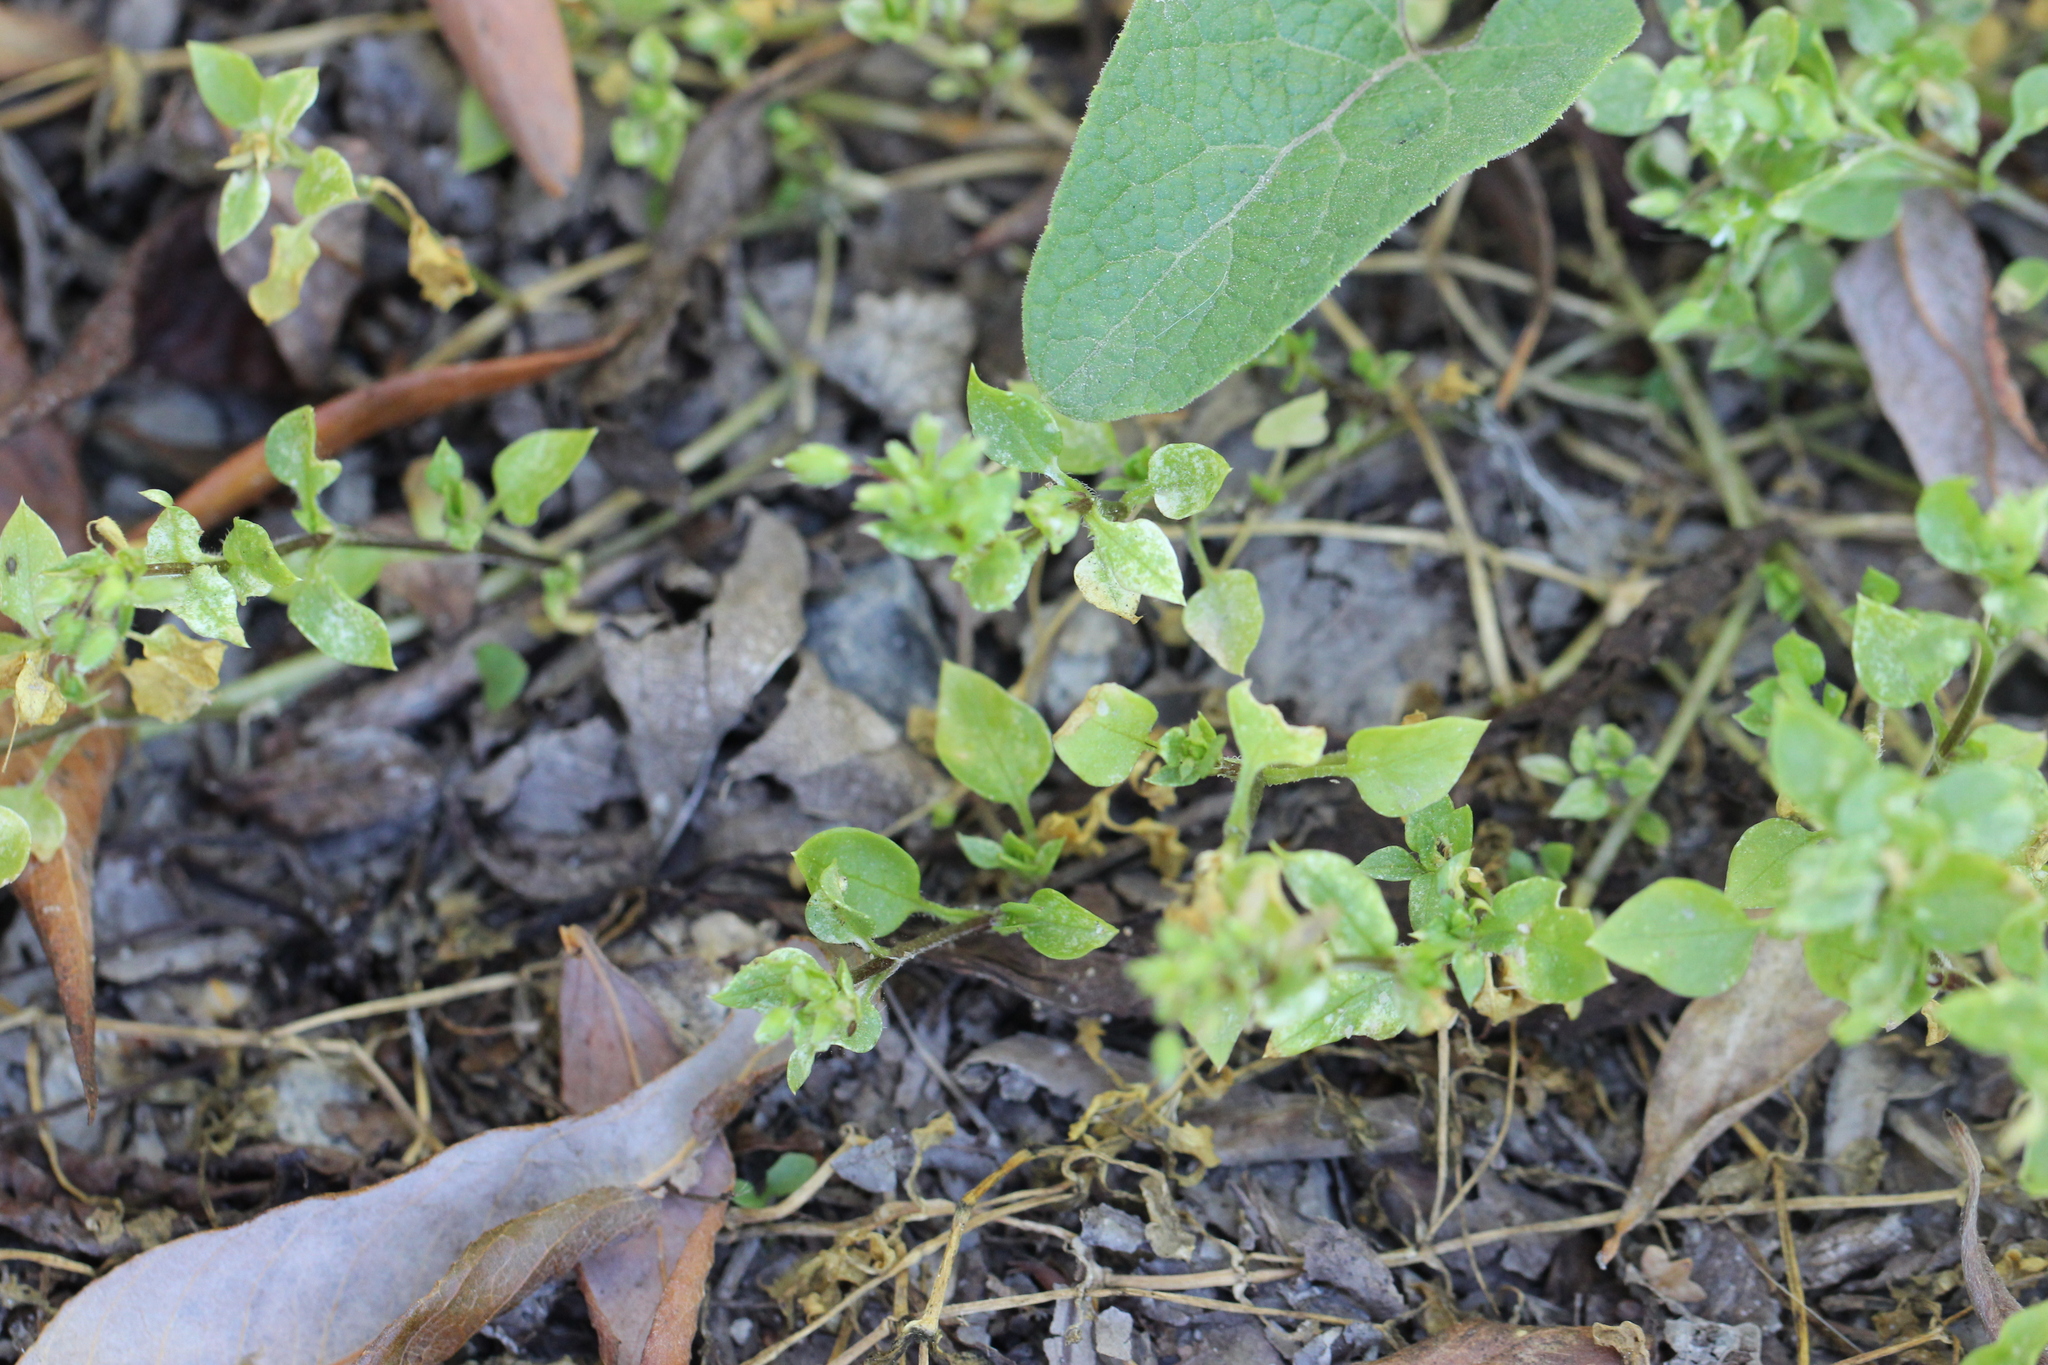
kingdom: Plantae
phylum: Tracheophyta
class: Magnoliopsida
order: Caryophyllales
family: Caryophyllaceae
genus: Stellaria
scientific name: Stellaria media
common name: Common chickweed
